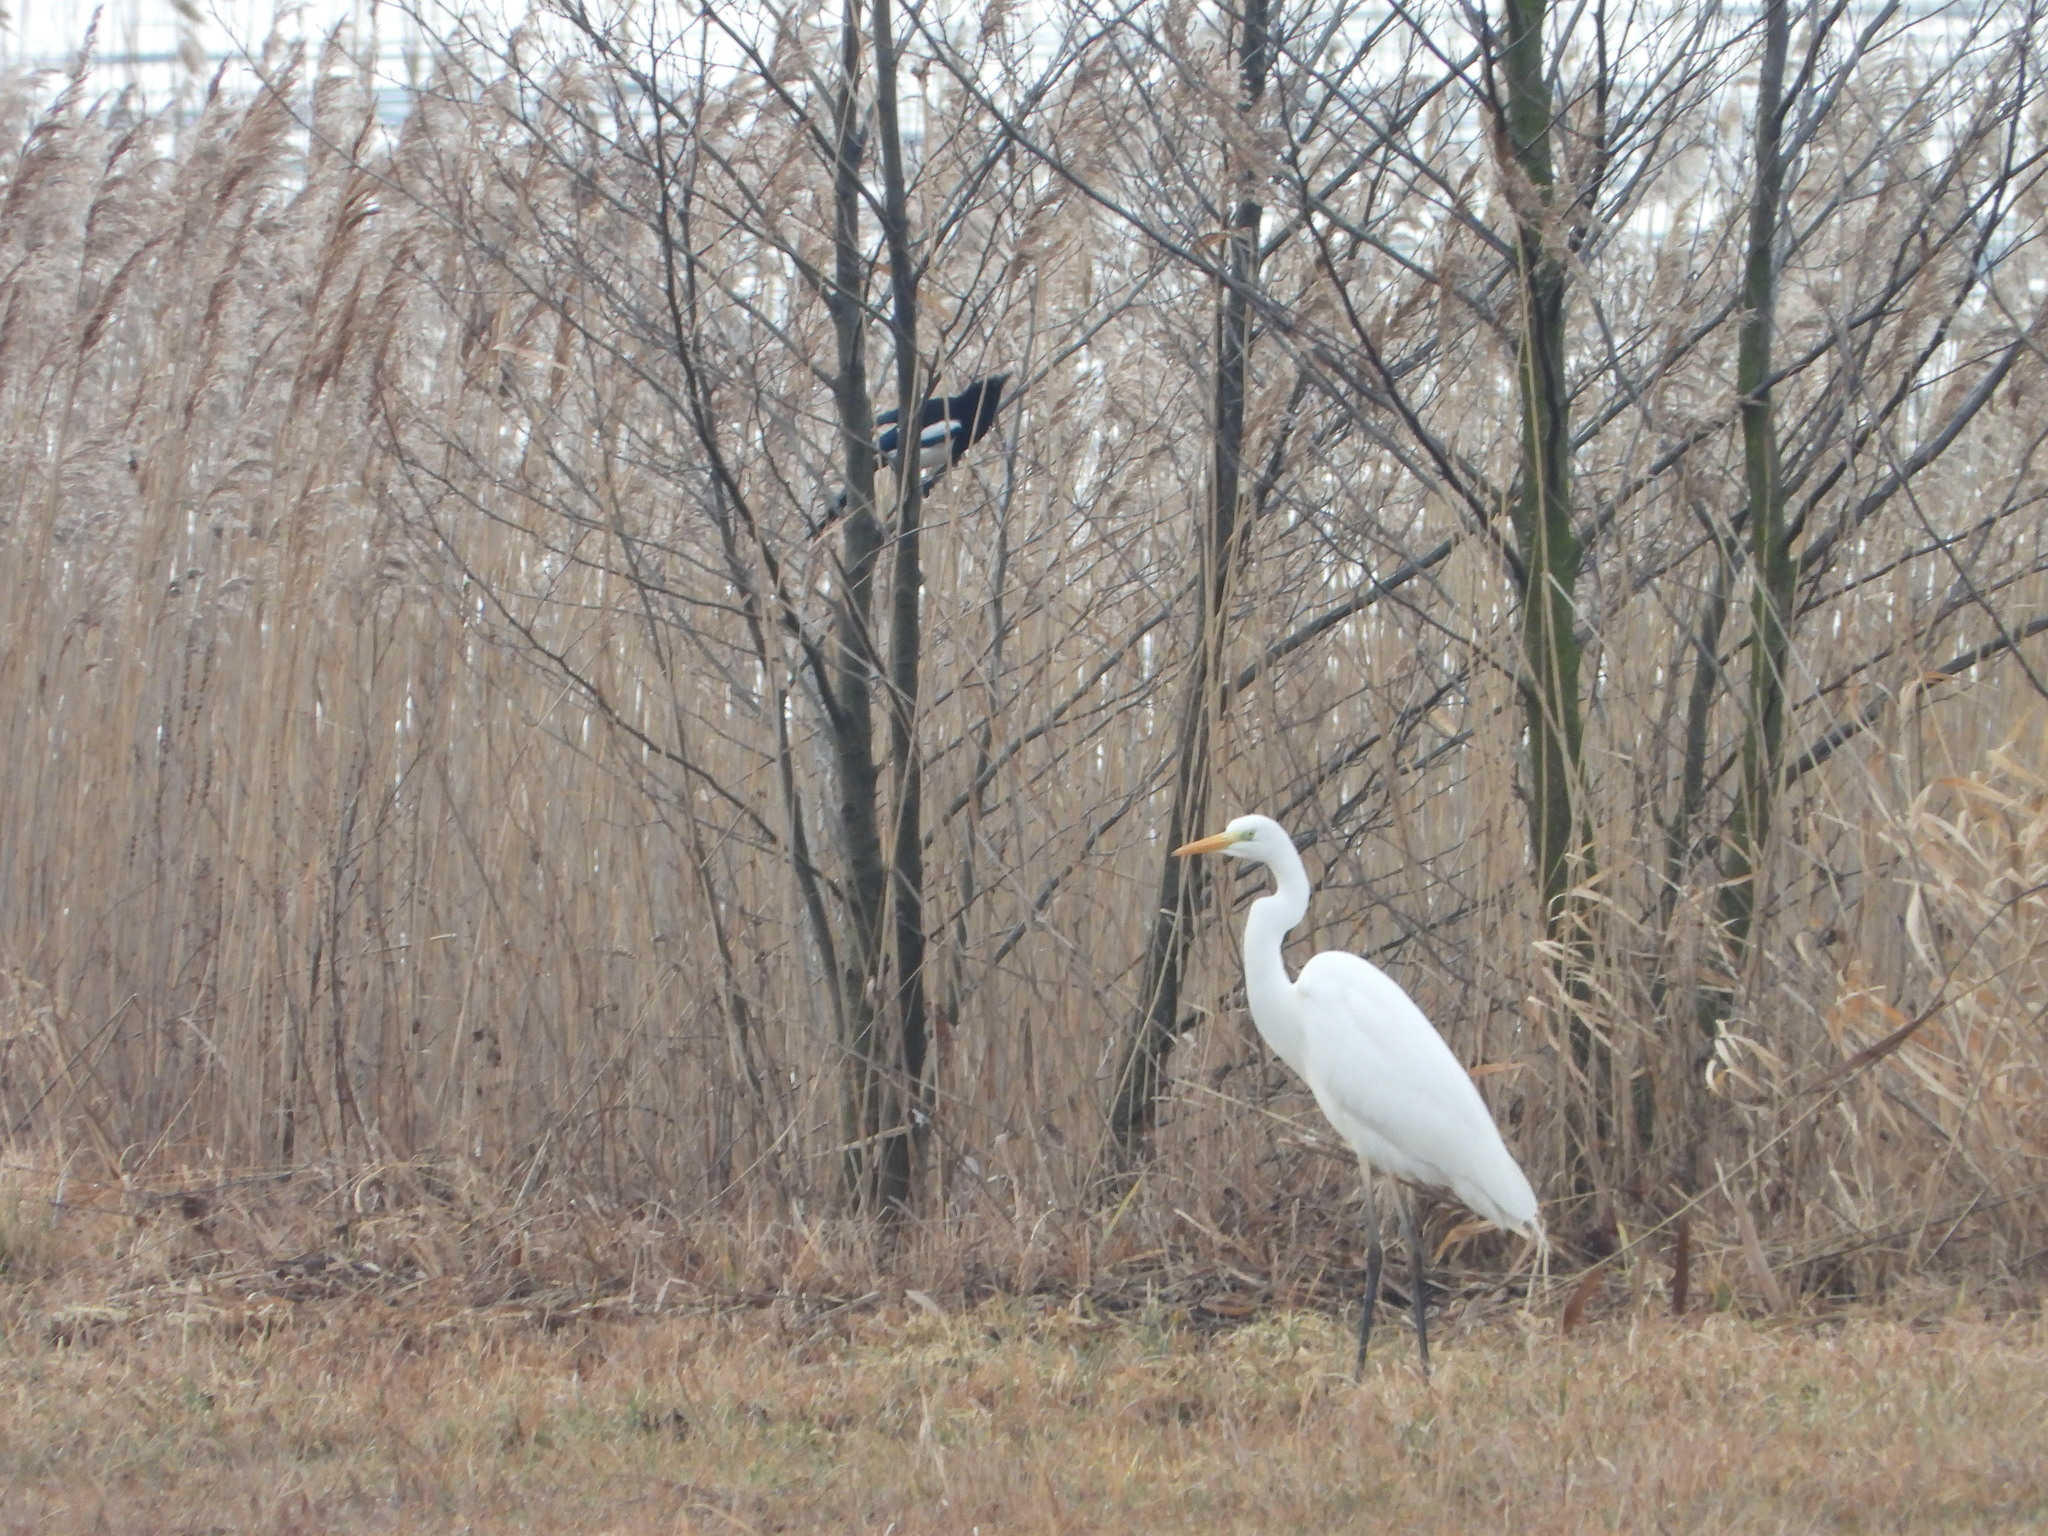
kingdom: Animalia
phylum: Chordata
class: Aves
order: Pelecaniformes
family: Ardeidae
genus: Ardea
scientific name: Ardea alba
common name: Great egret
